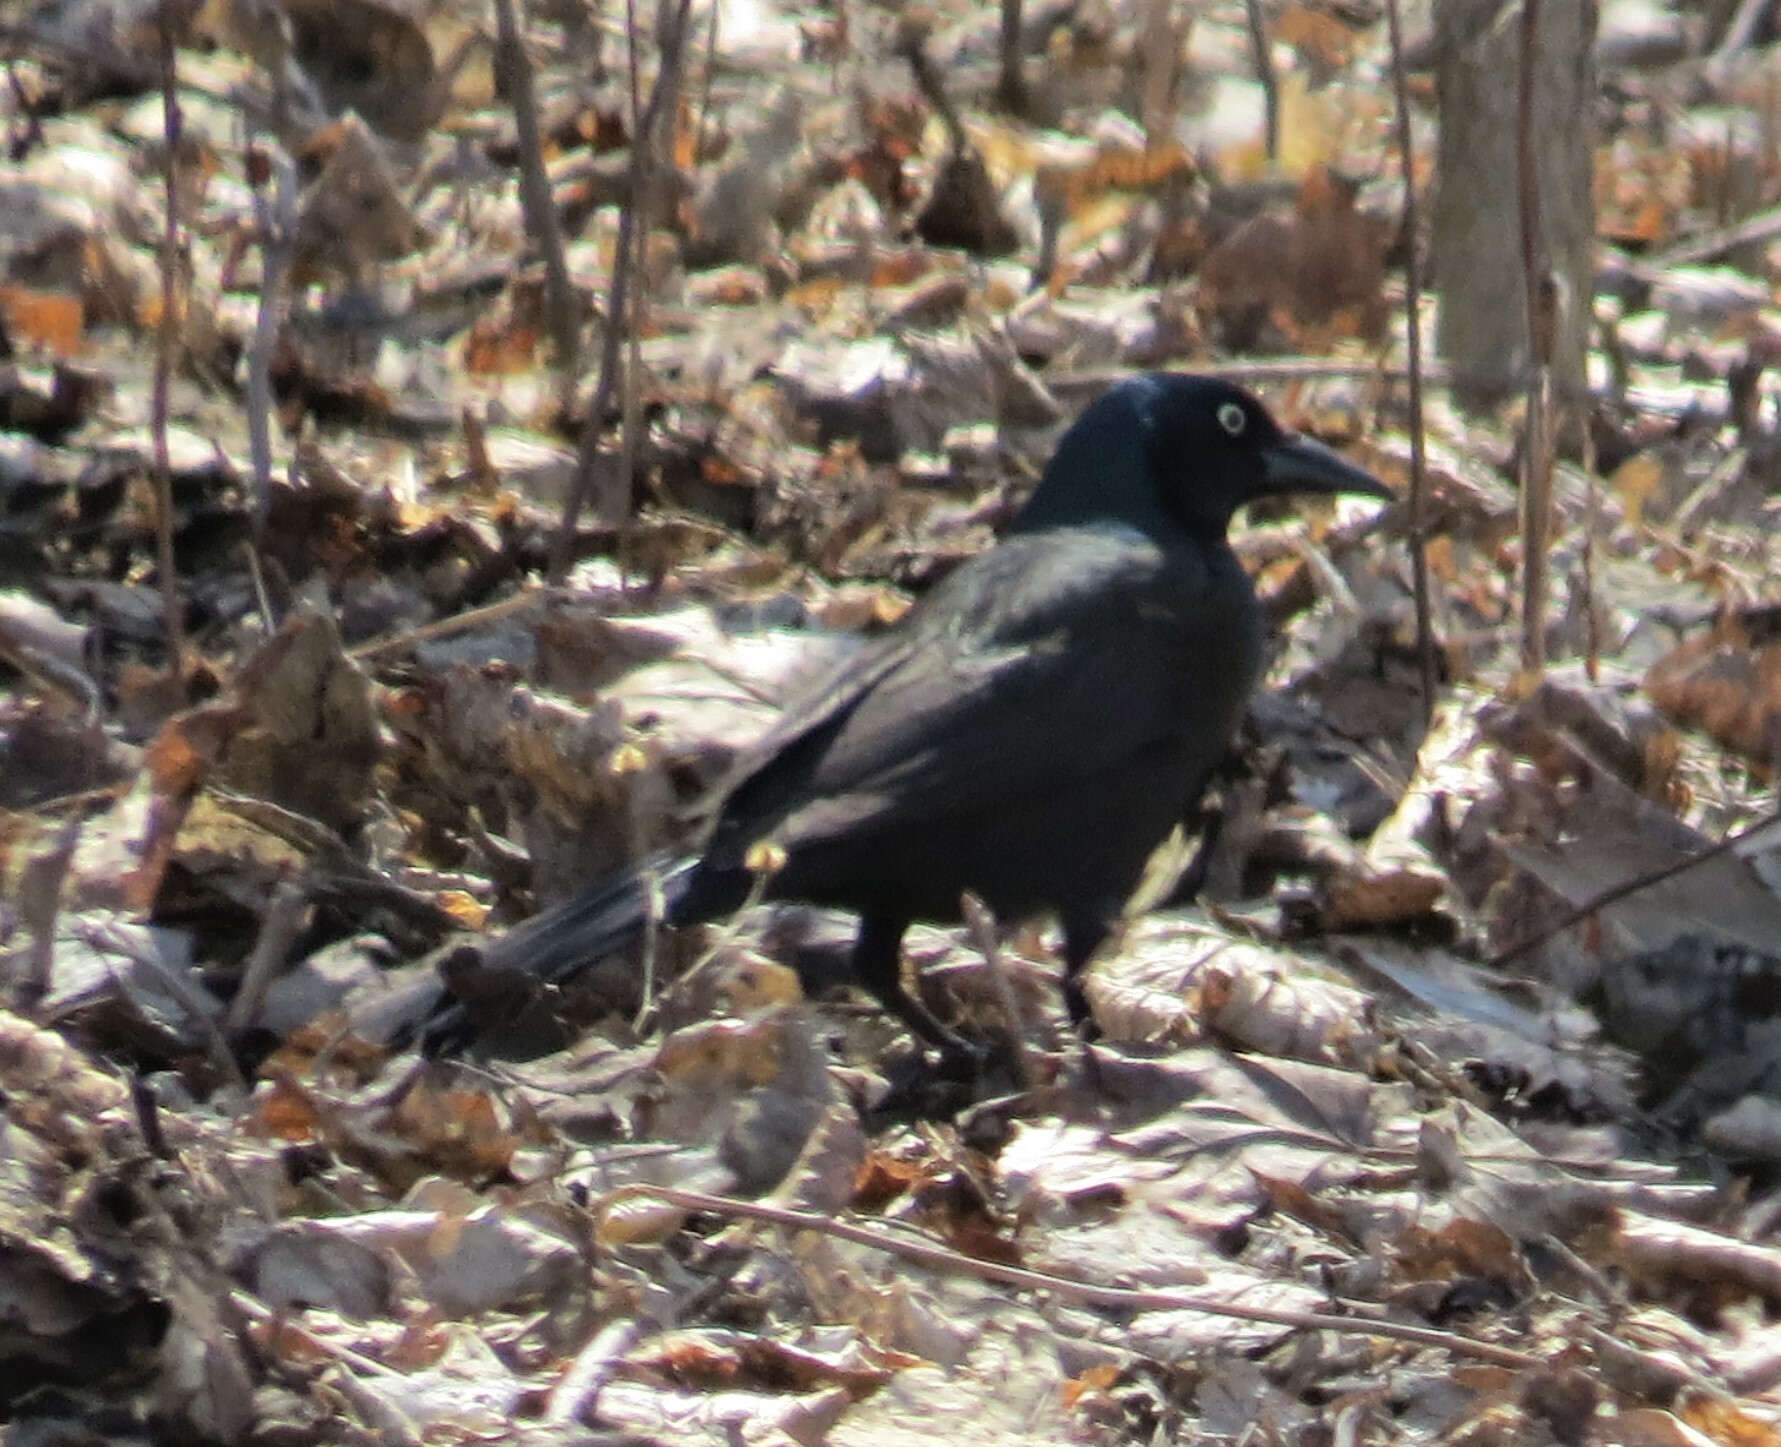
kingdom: Animalia
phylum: Chordata
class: Aves
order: Passeriformes
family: Icteridae
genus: Quiscalus
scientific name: Quiscalus quiscula
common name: Common grackle
